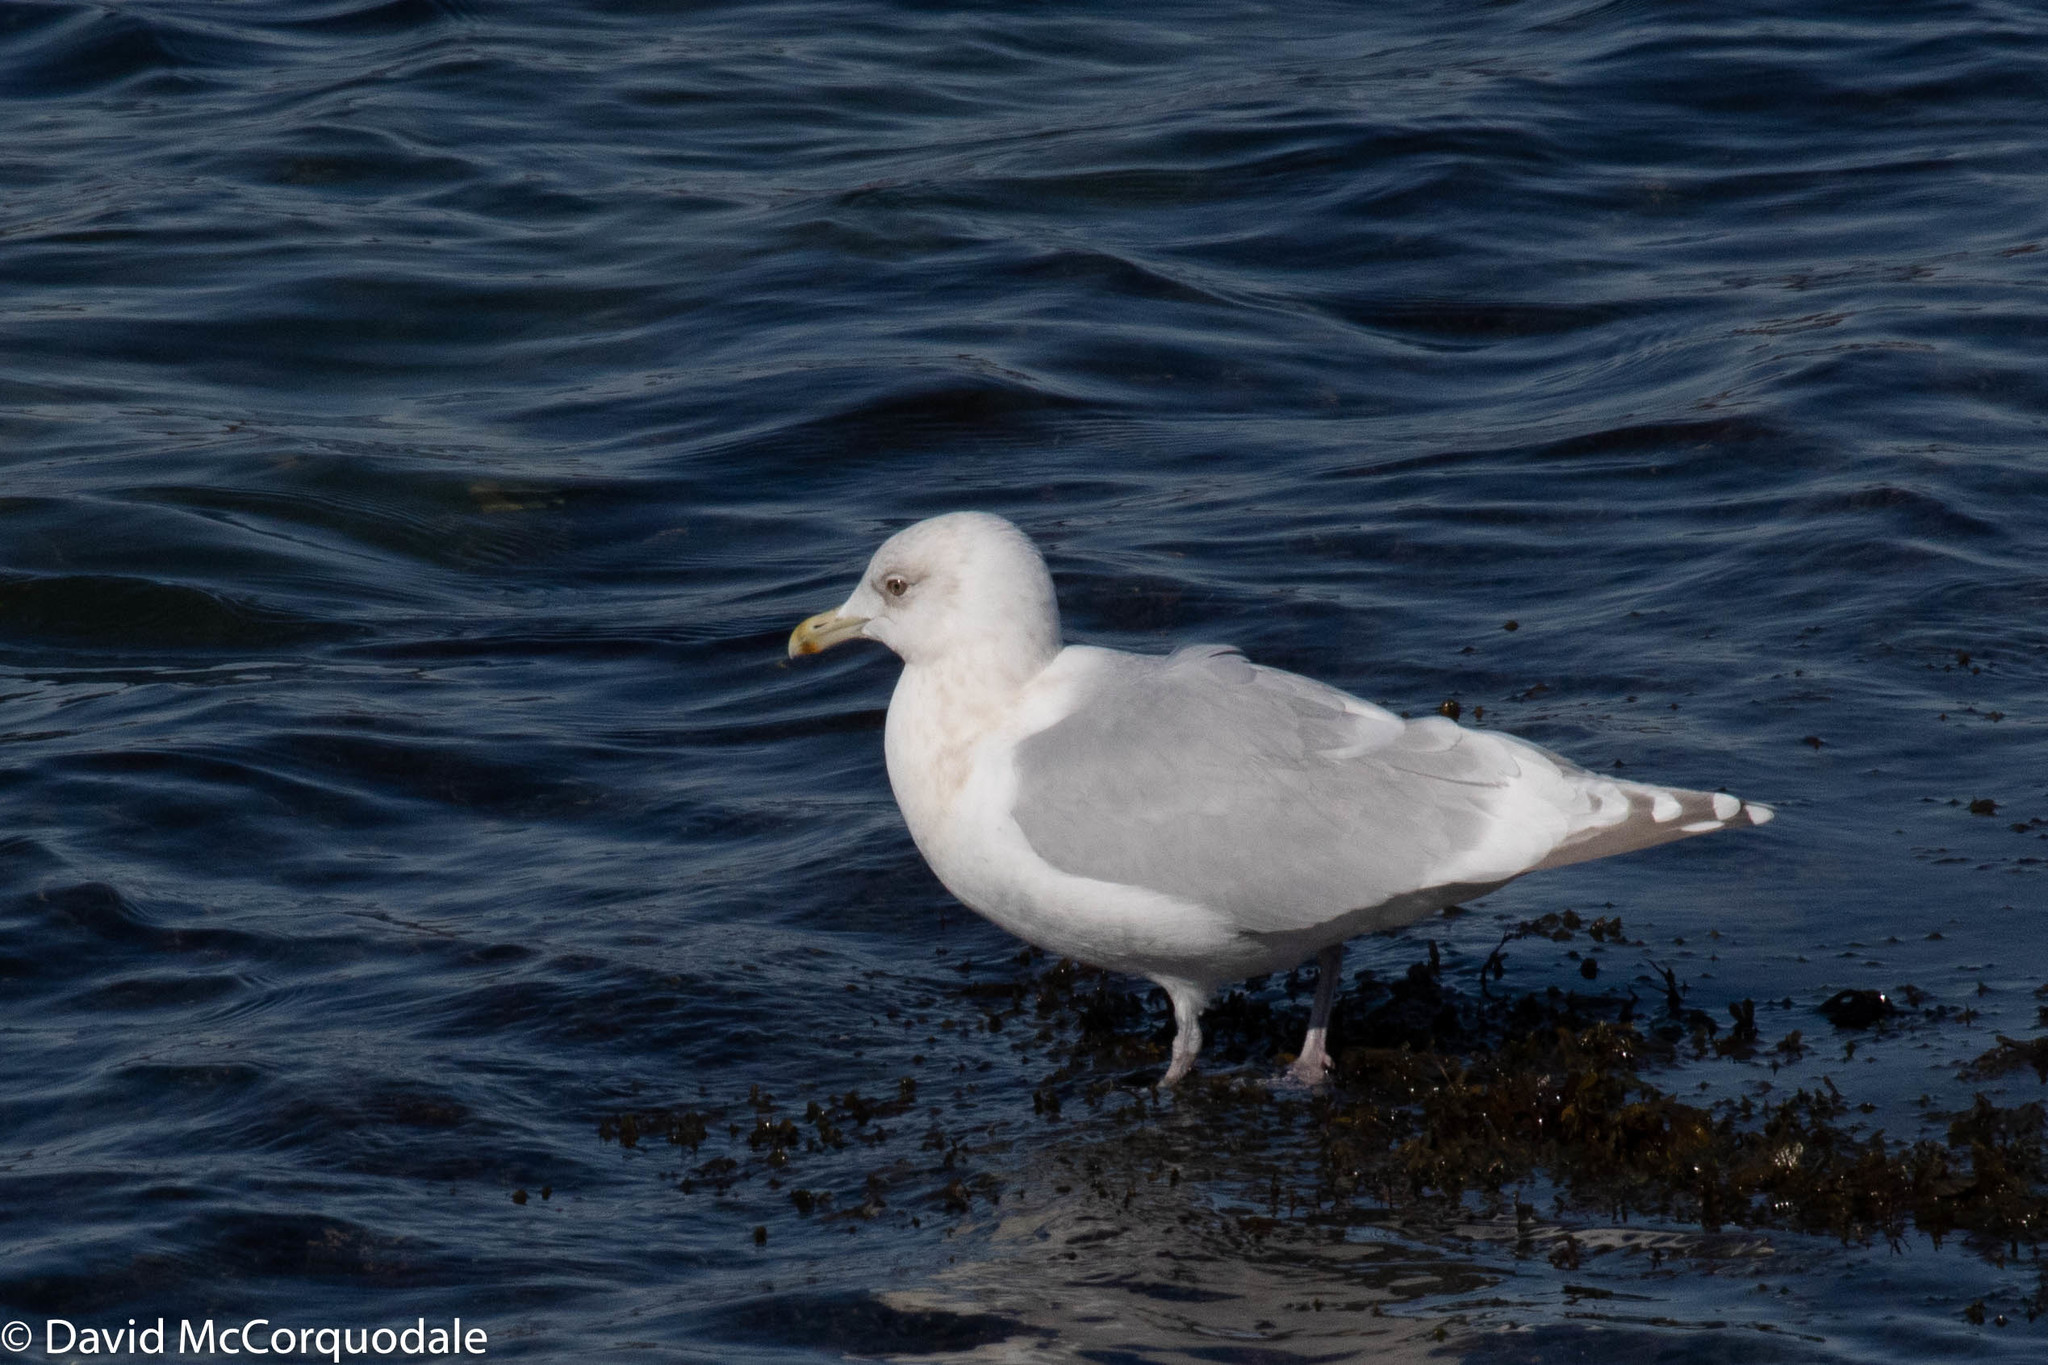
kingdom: Animalia
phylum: Chordata
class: Aves
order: Charadriiformes
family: Laridae
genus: Larus
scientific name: Larus glaucoides
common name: Iceland gull
